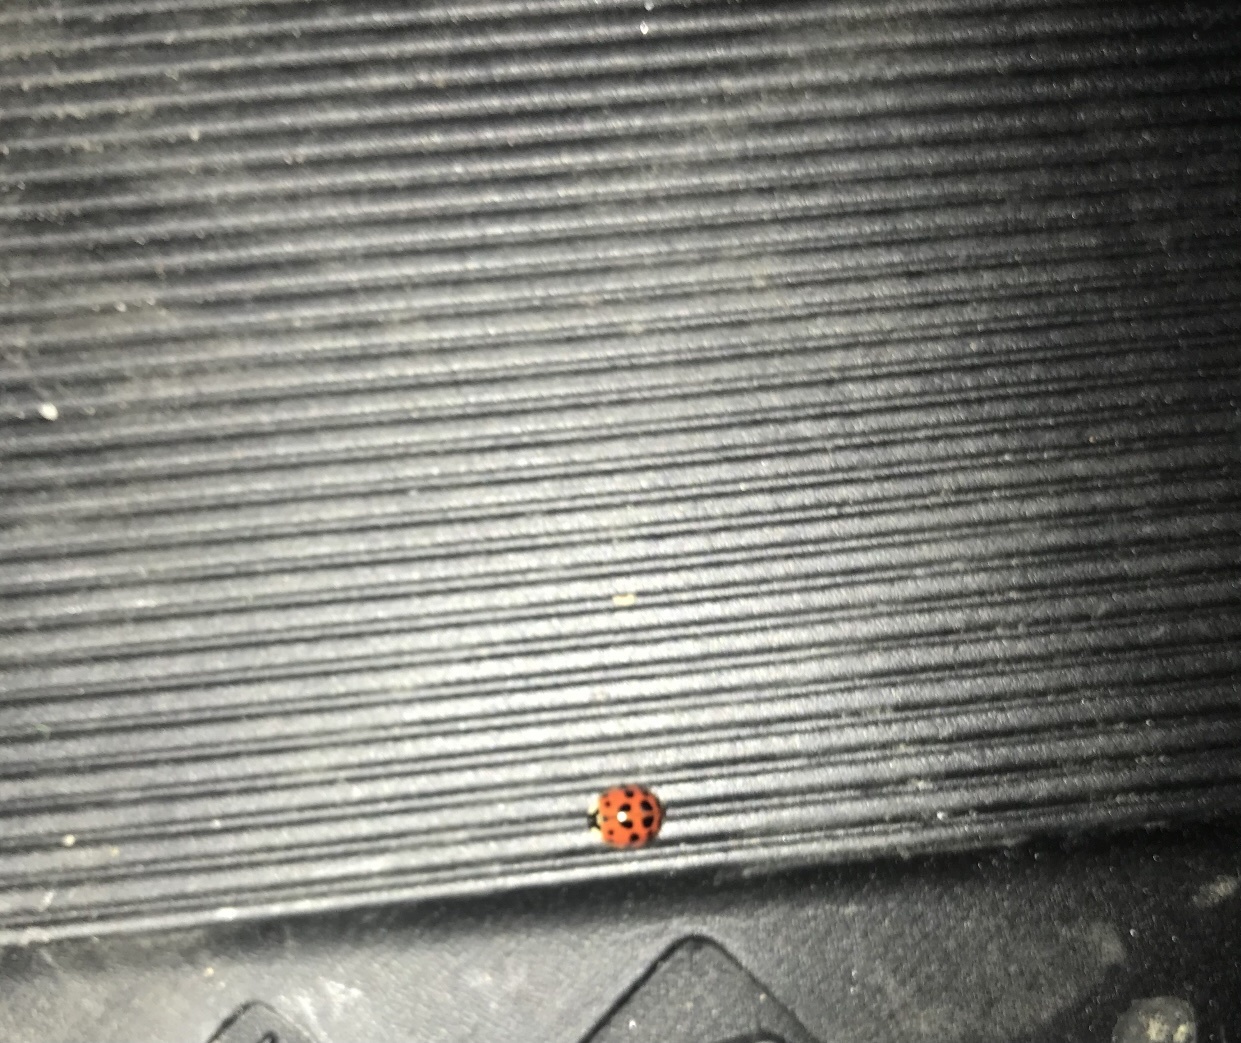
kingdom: Animalia
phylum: Arthropoda
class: Insecta
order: Coleoptera
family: Coccinellidae
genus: Harmonia
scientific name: Harmonia axyridis
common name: Harlequin ladybird
